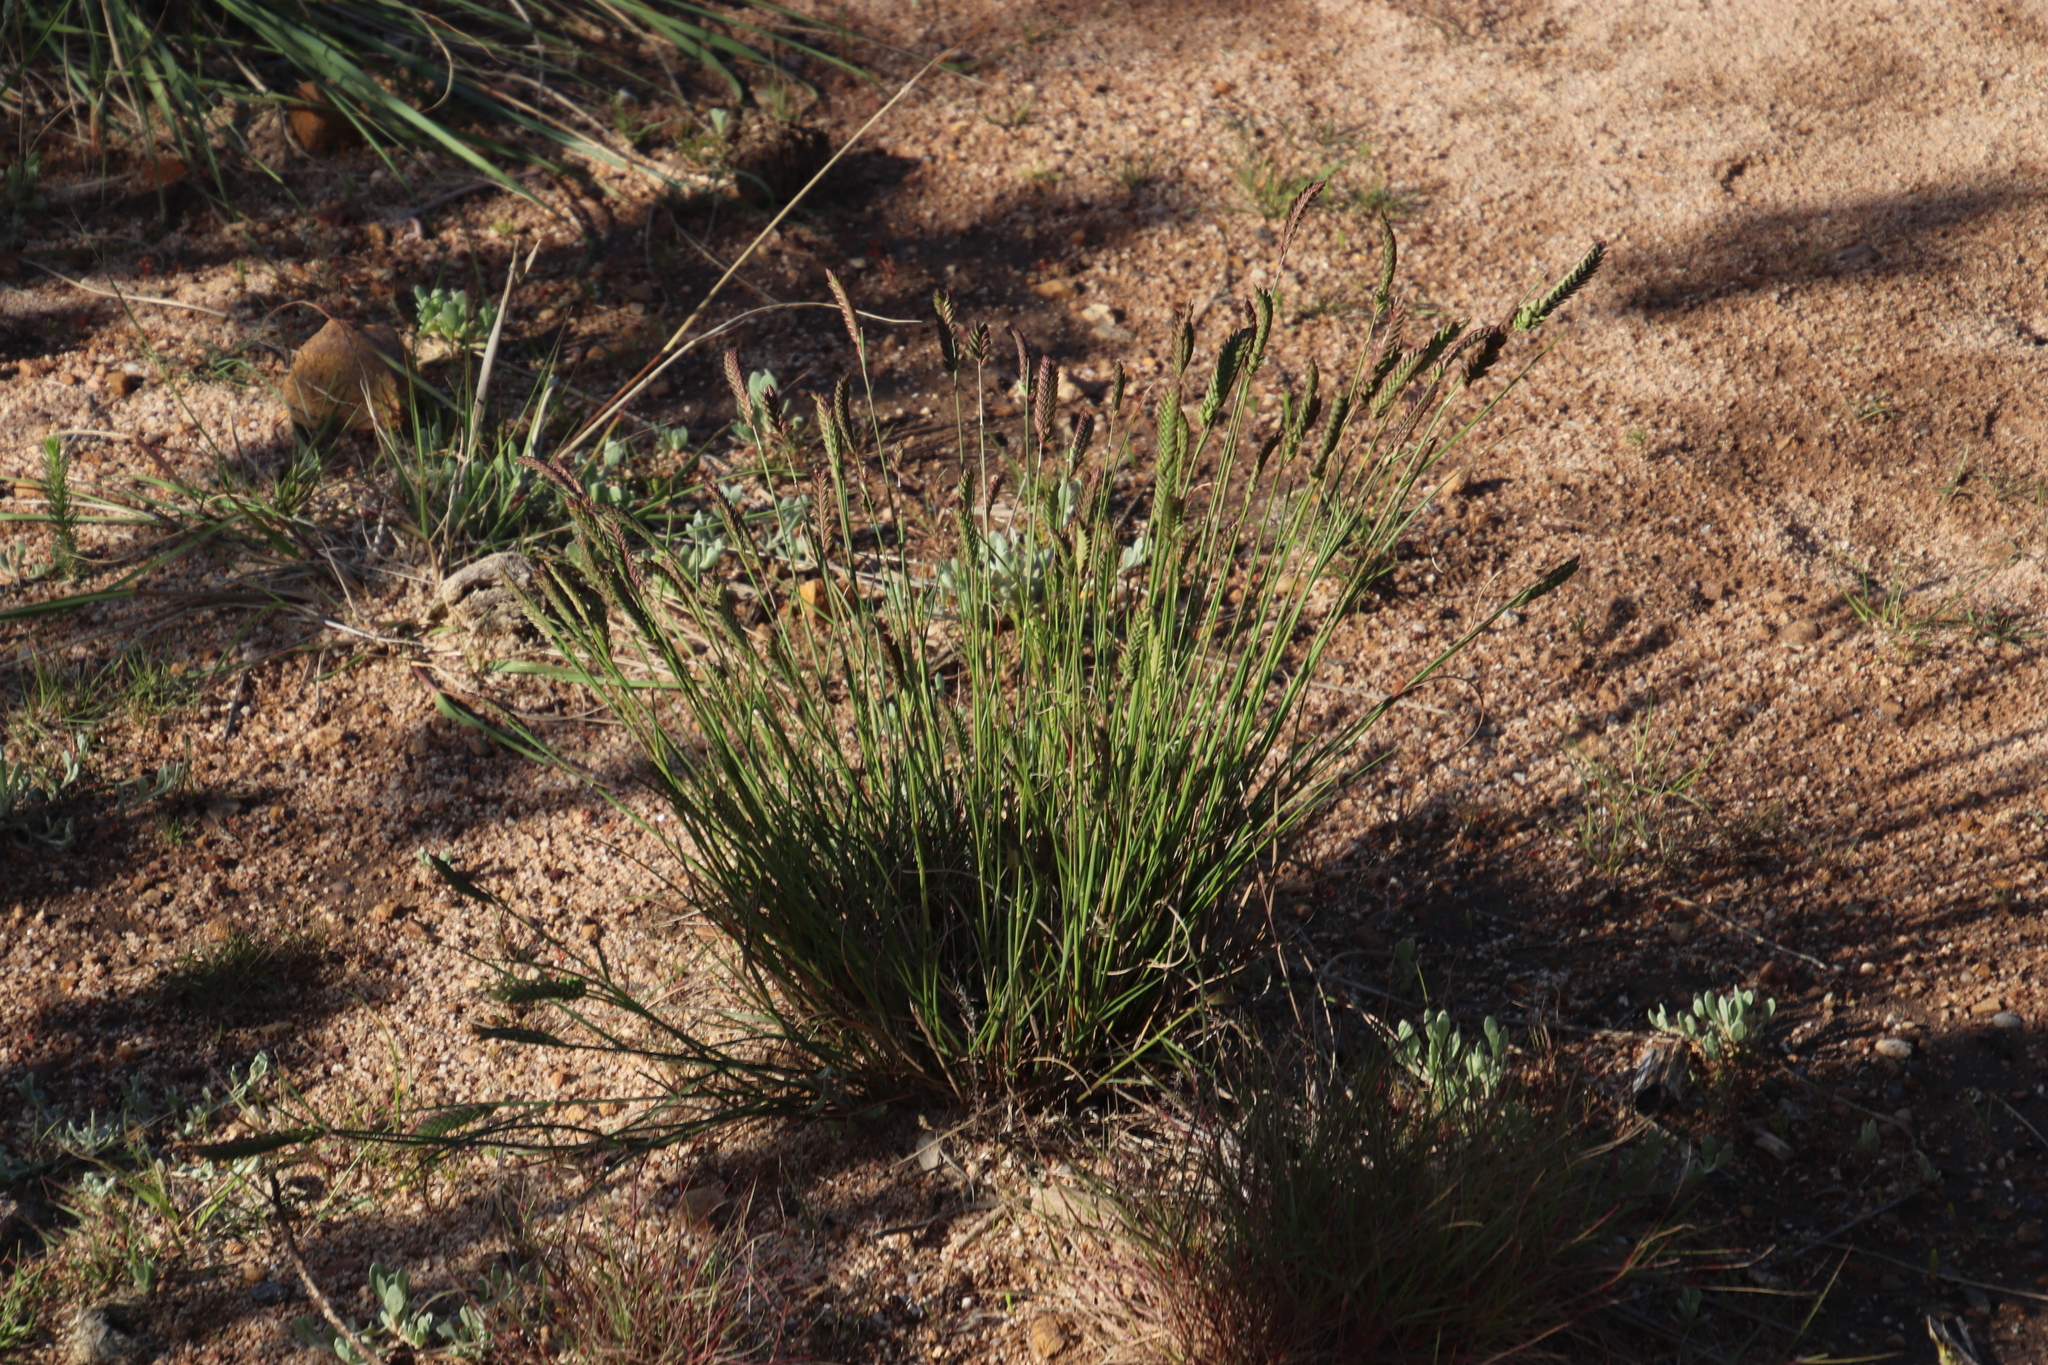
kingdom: Plantae
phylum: Tracheophyta
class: Liliopsida
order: Poales
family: Poaceae
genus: Tribolium
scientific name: Tribolium uniolae
